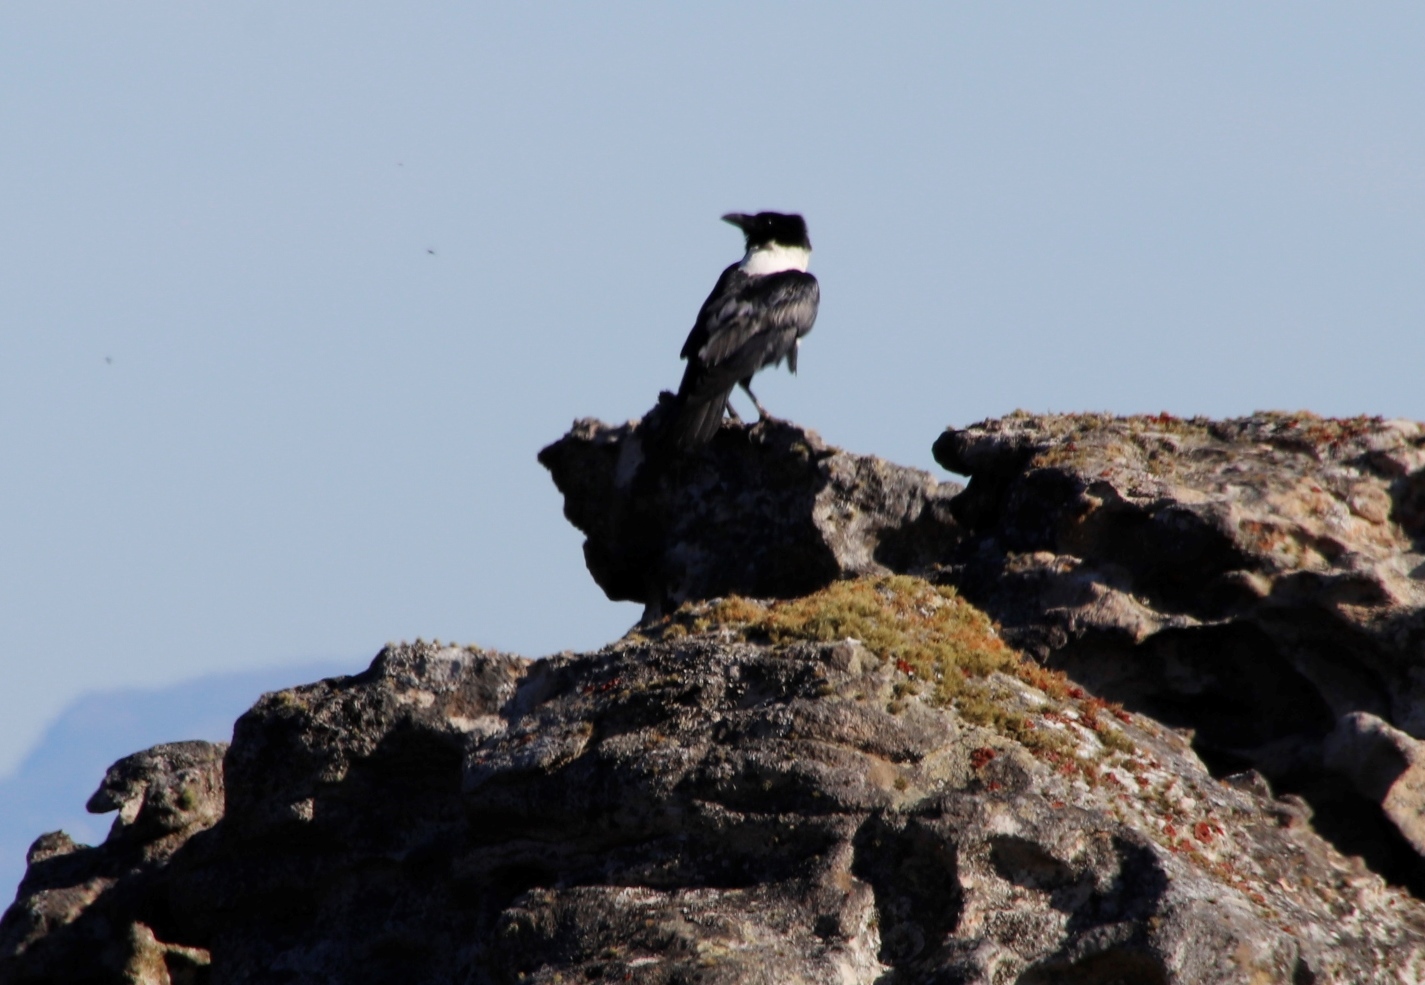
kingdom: Animalia
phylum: Chordata
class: Aves
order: Passeriformes
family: Corvidae
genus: Corvus
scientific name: Corvus albus
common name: Pied crow
